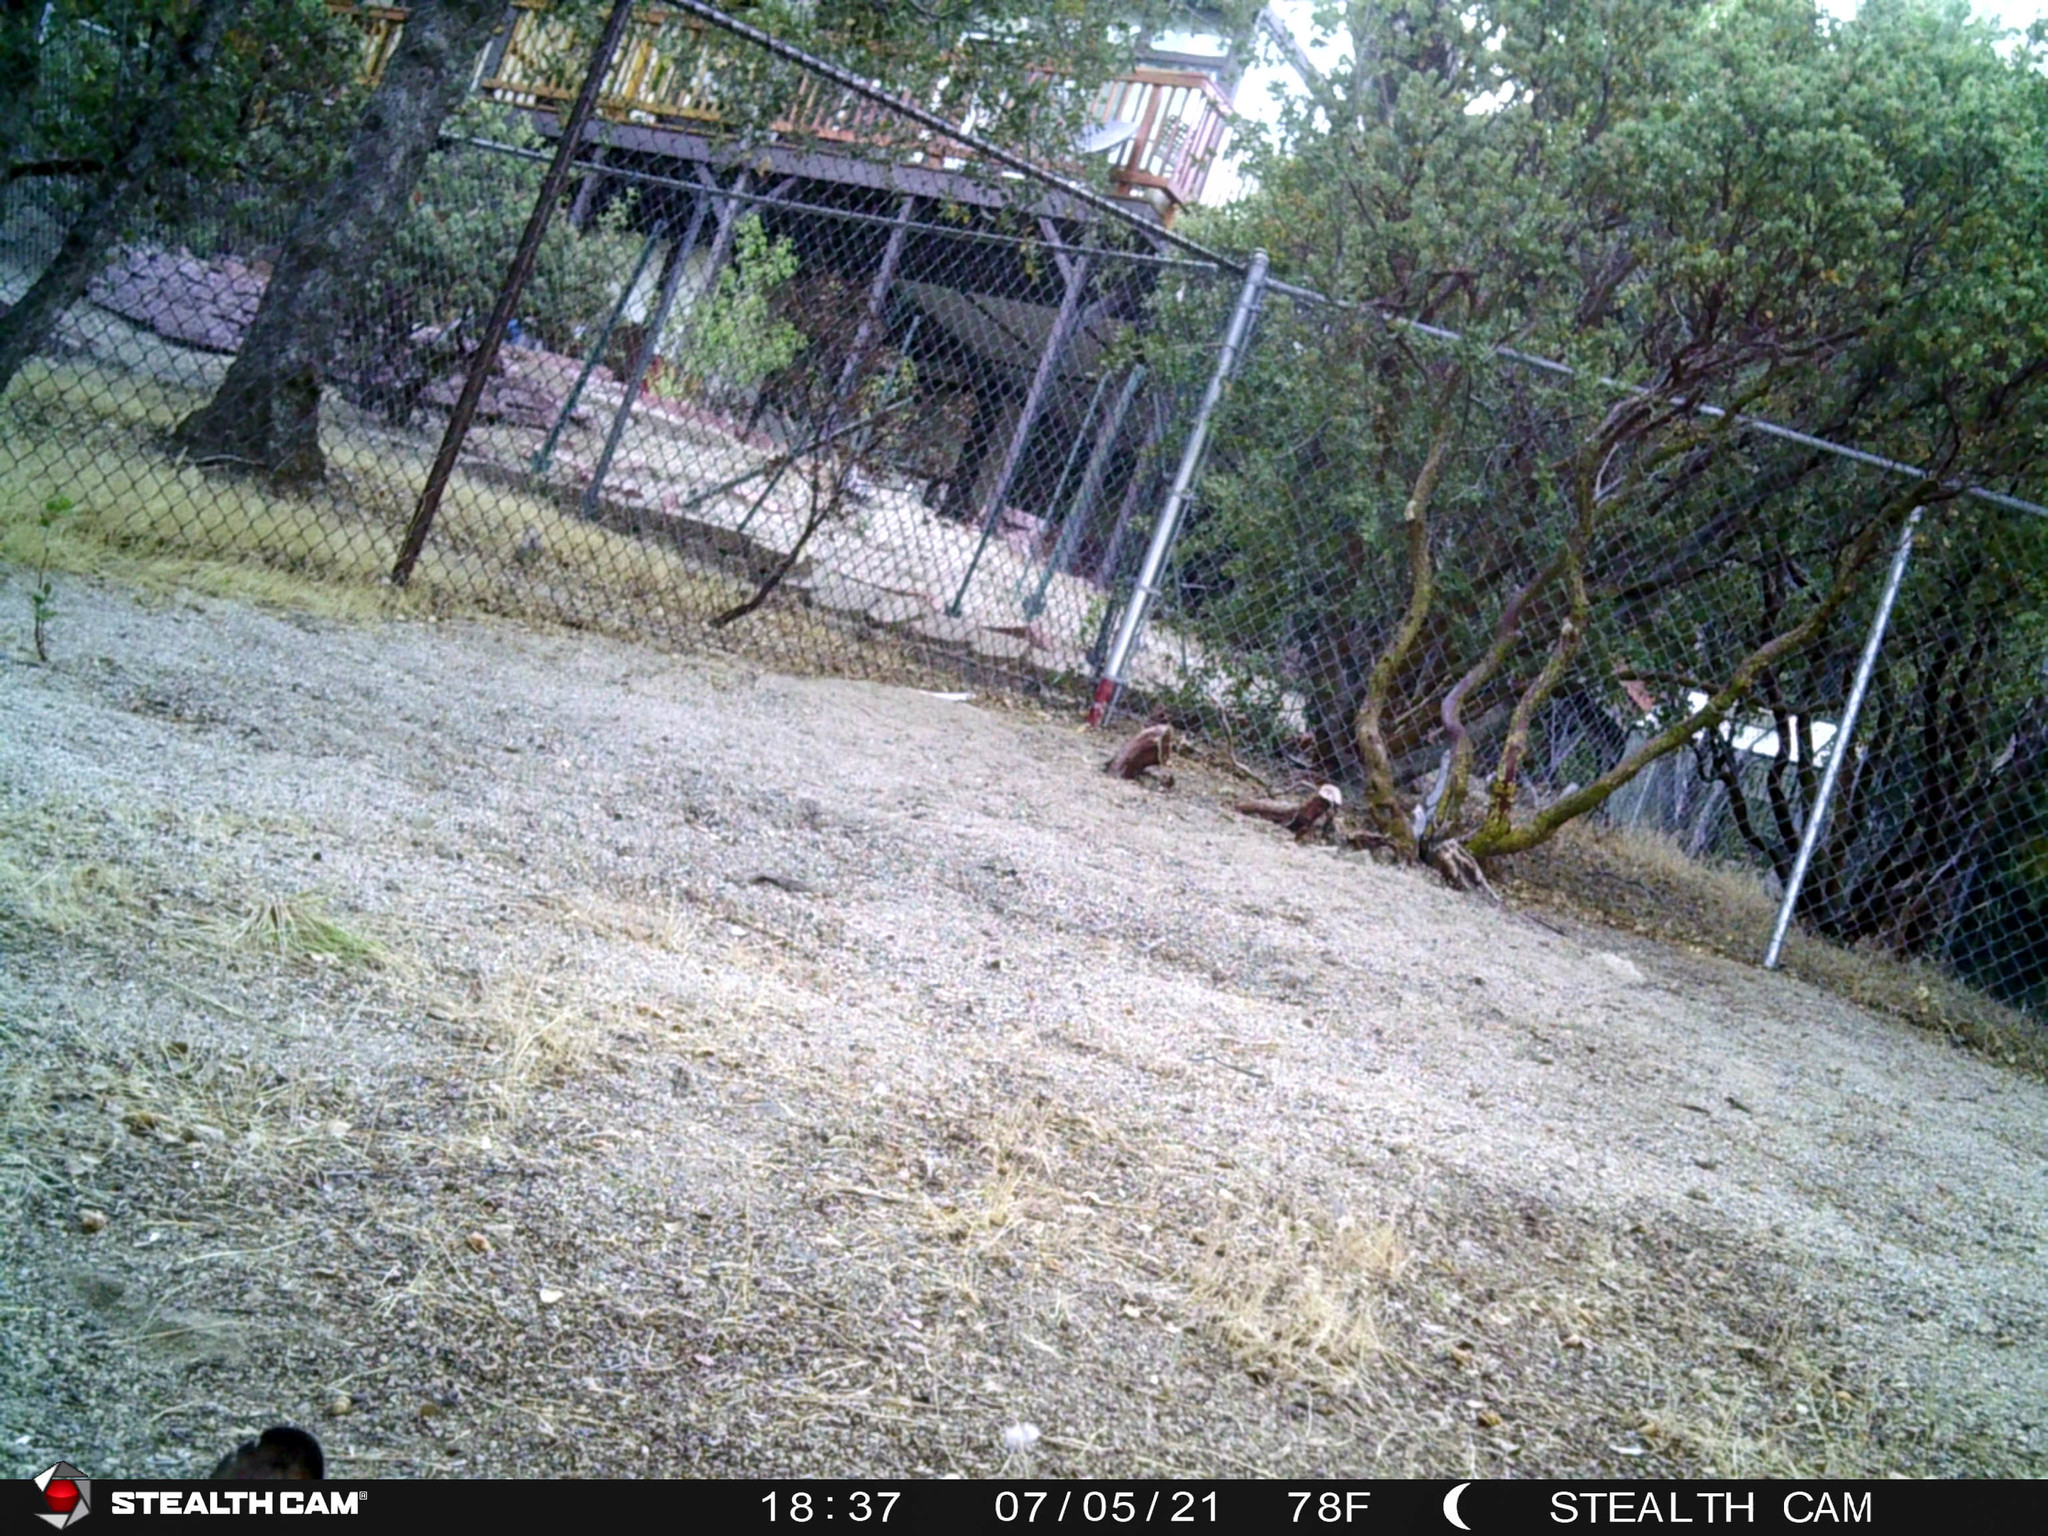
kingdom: Animalia
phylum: Chordata
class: Mammalia
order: Lagomorpha
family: Leporidae
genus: Sylvilagus
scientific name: Sylvilagus audubonii
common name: Desert cottontail
